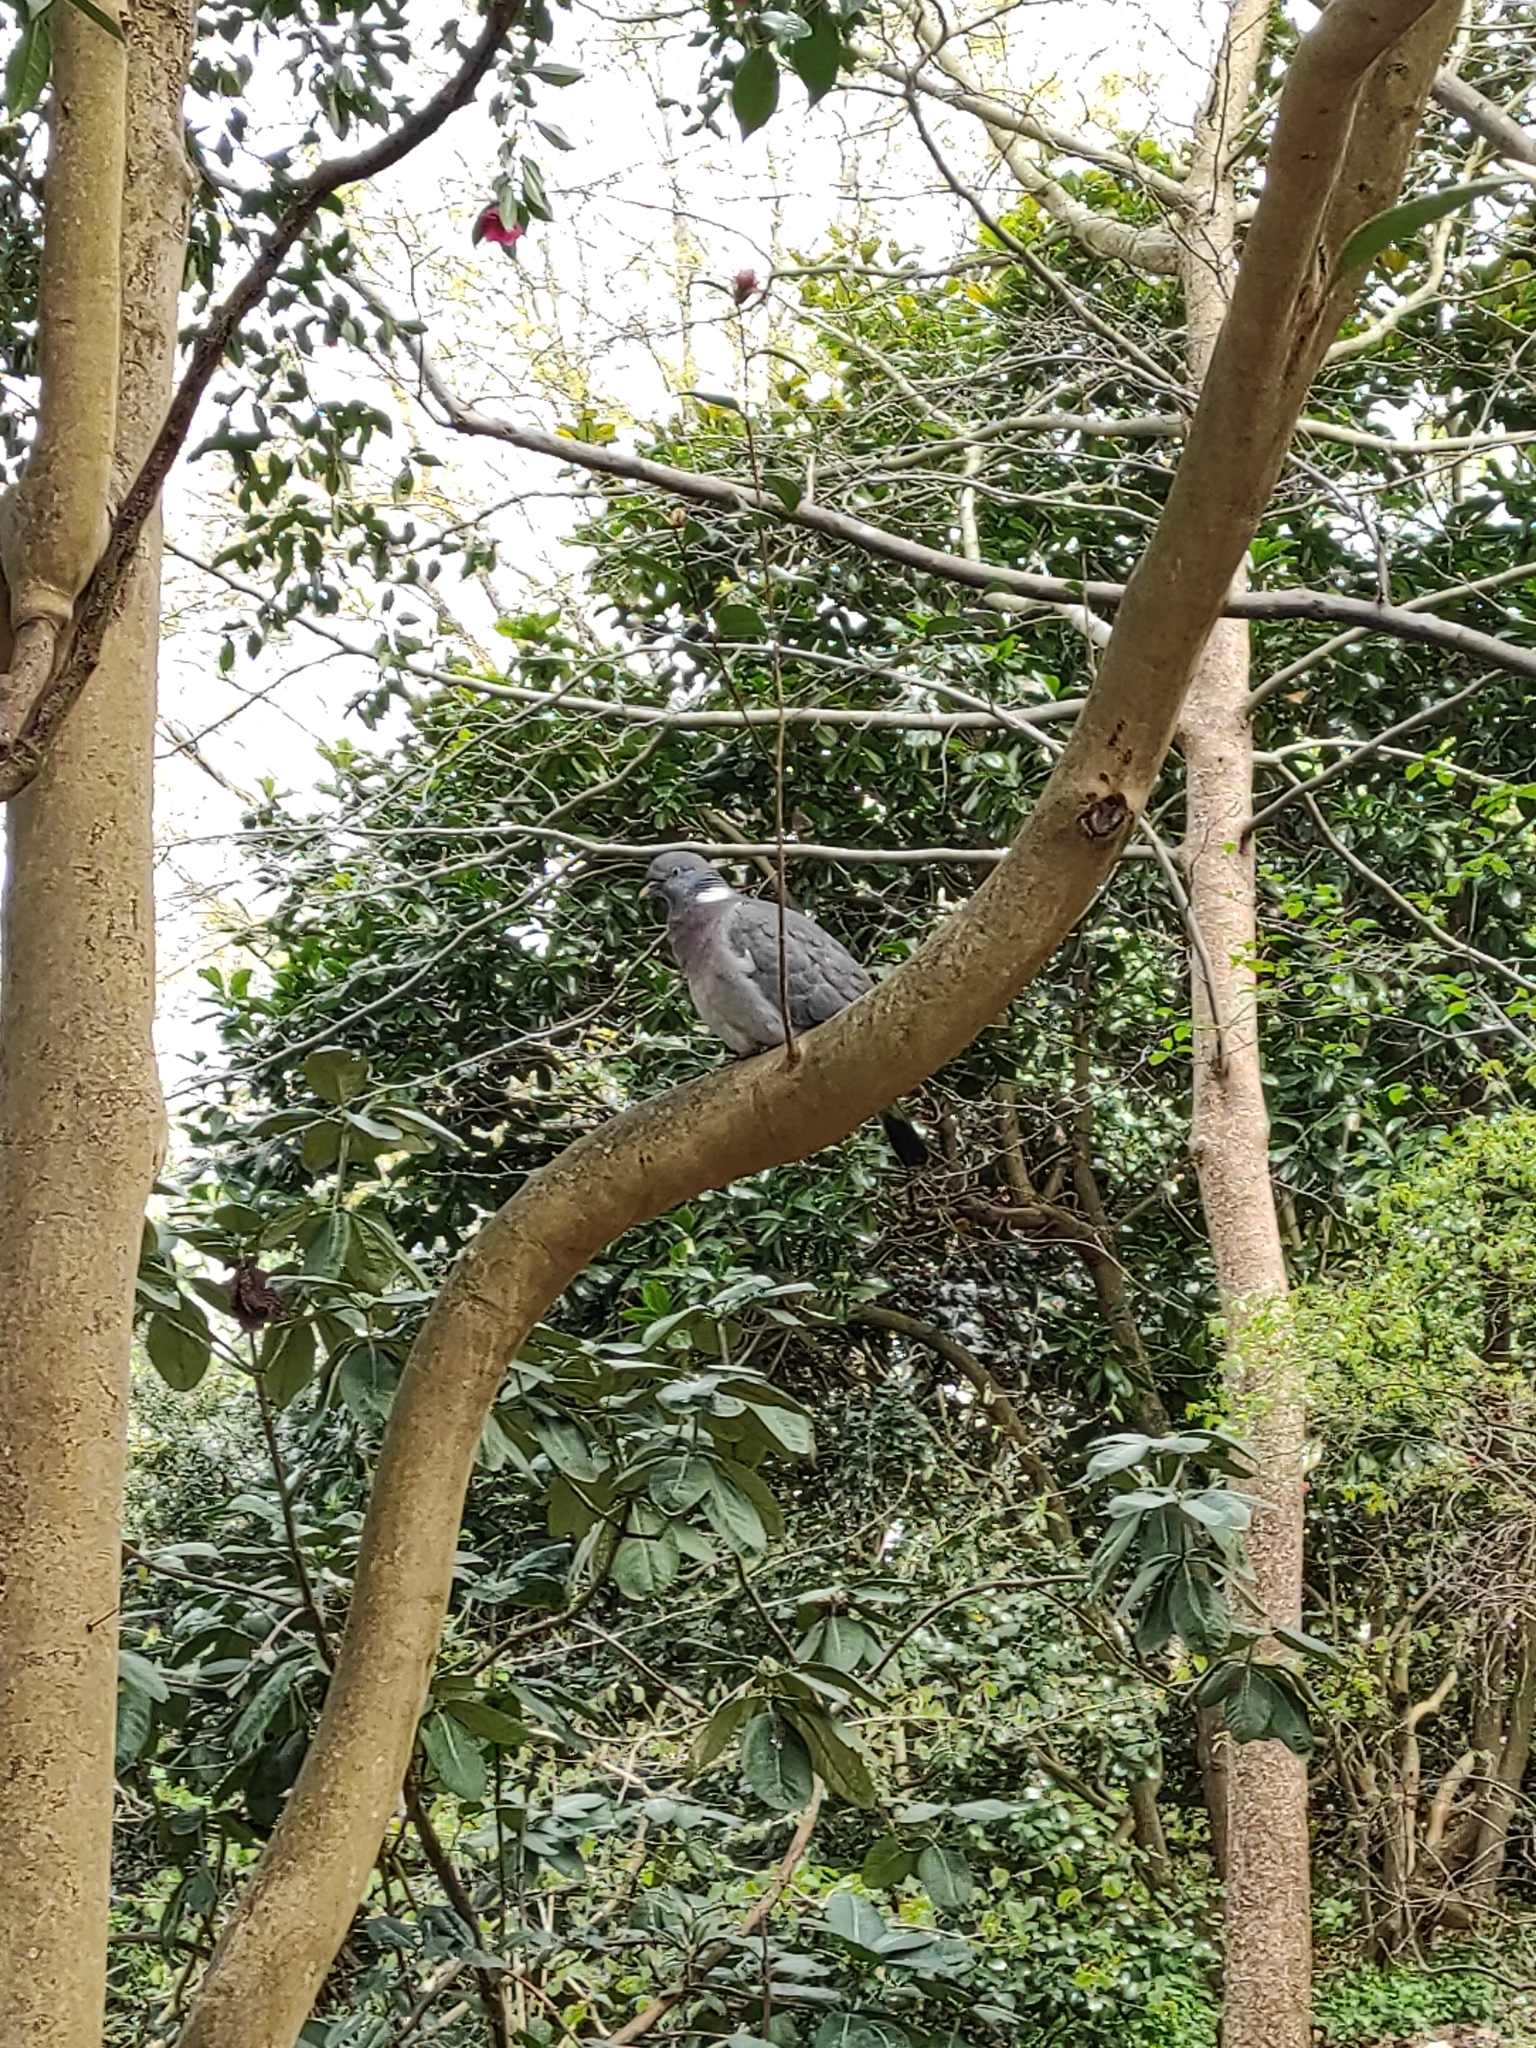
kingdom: Animalia
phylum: Chordata
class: Aves
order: Columbiformes
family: Columbidae
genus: Columba
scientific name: Columba palumbus
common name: Common wood pigeon
